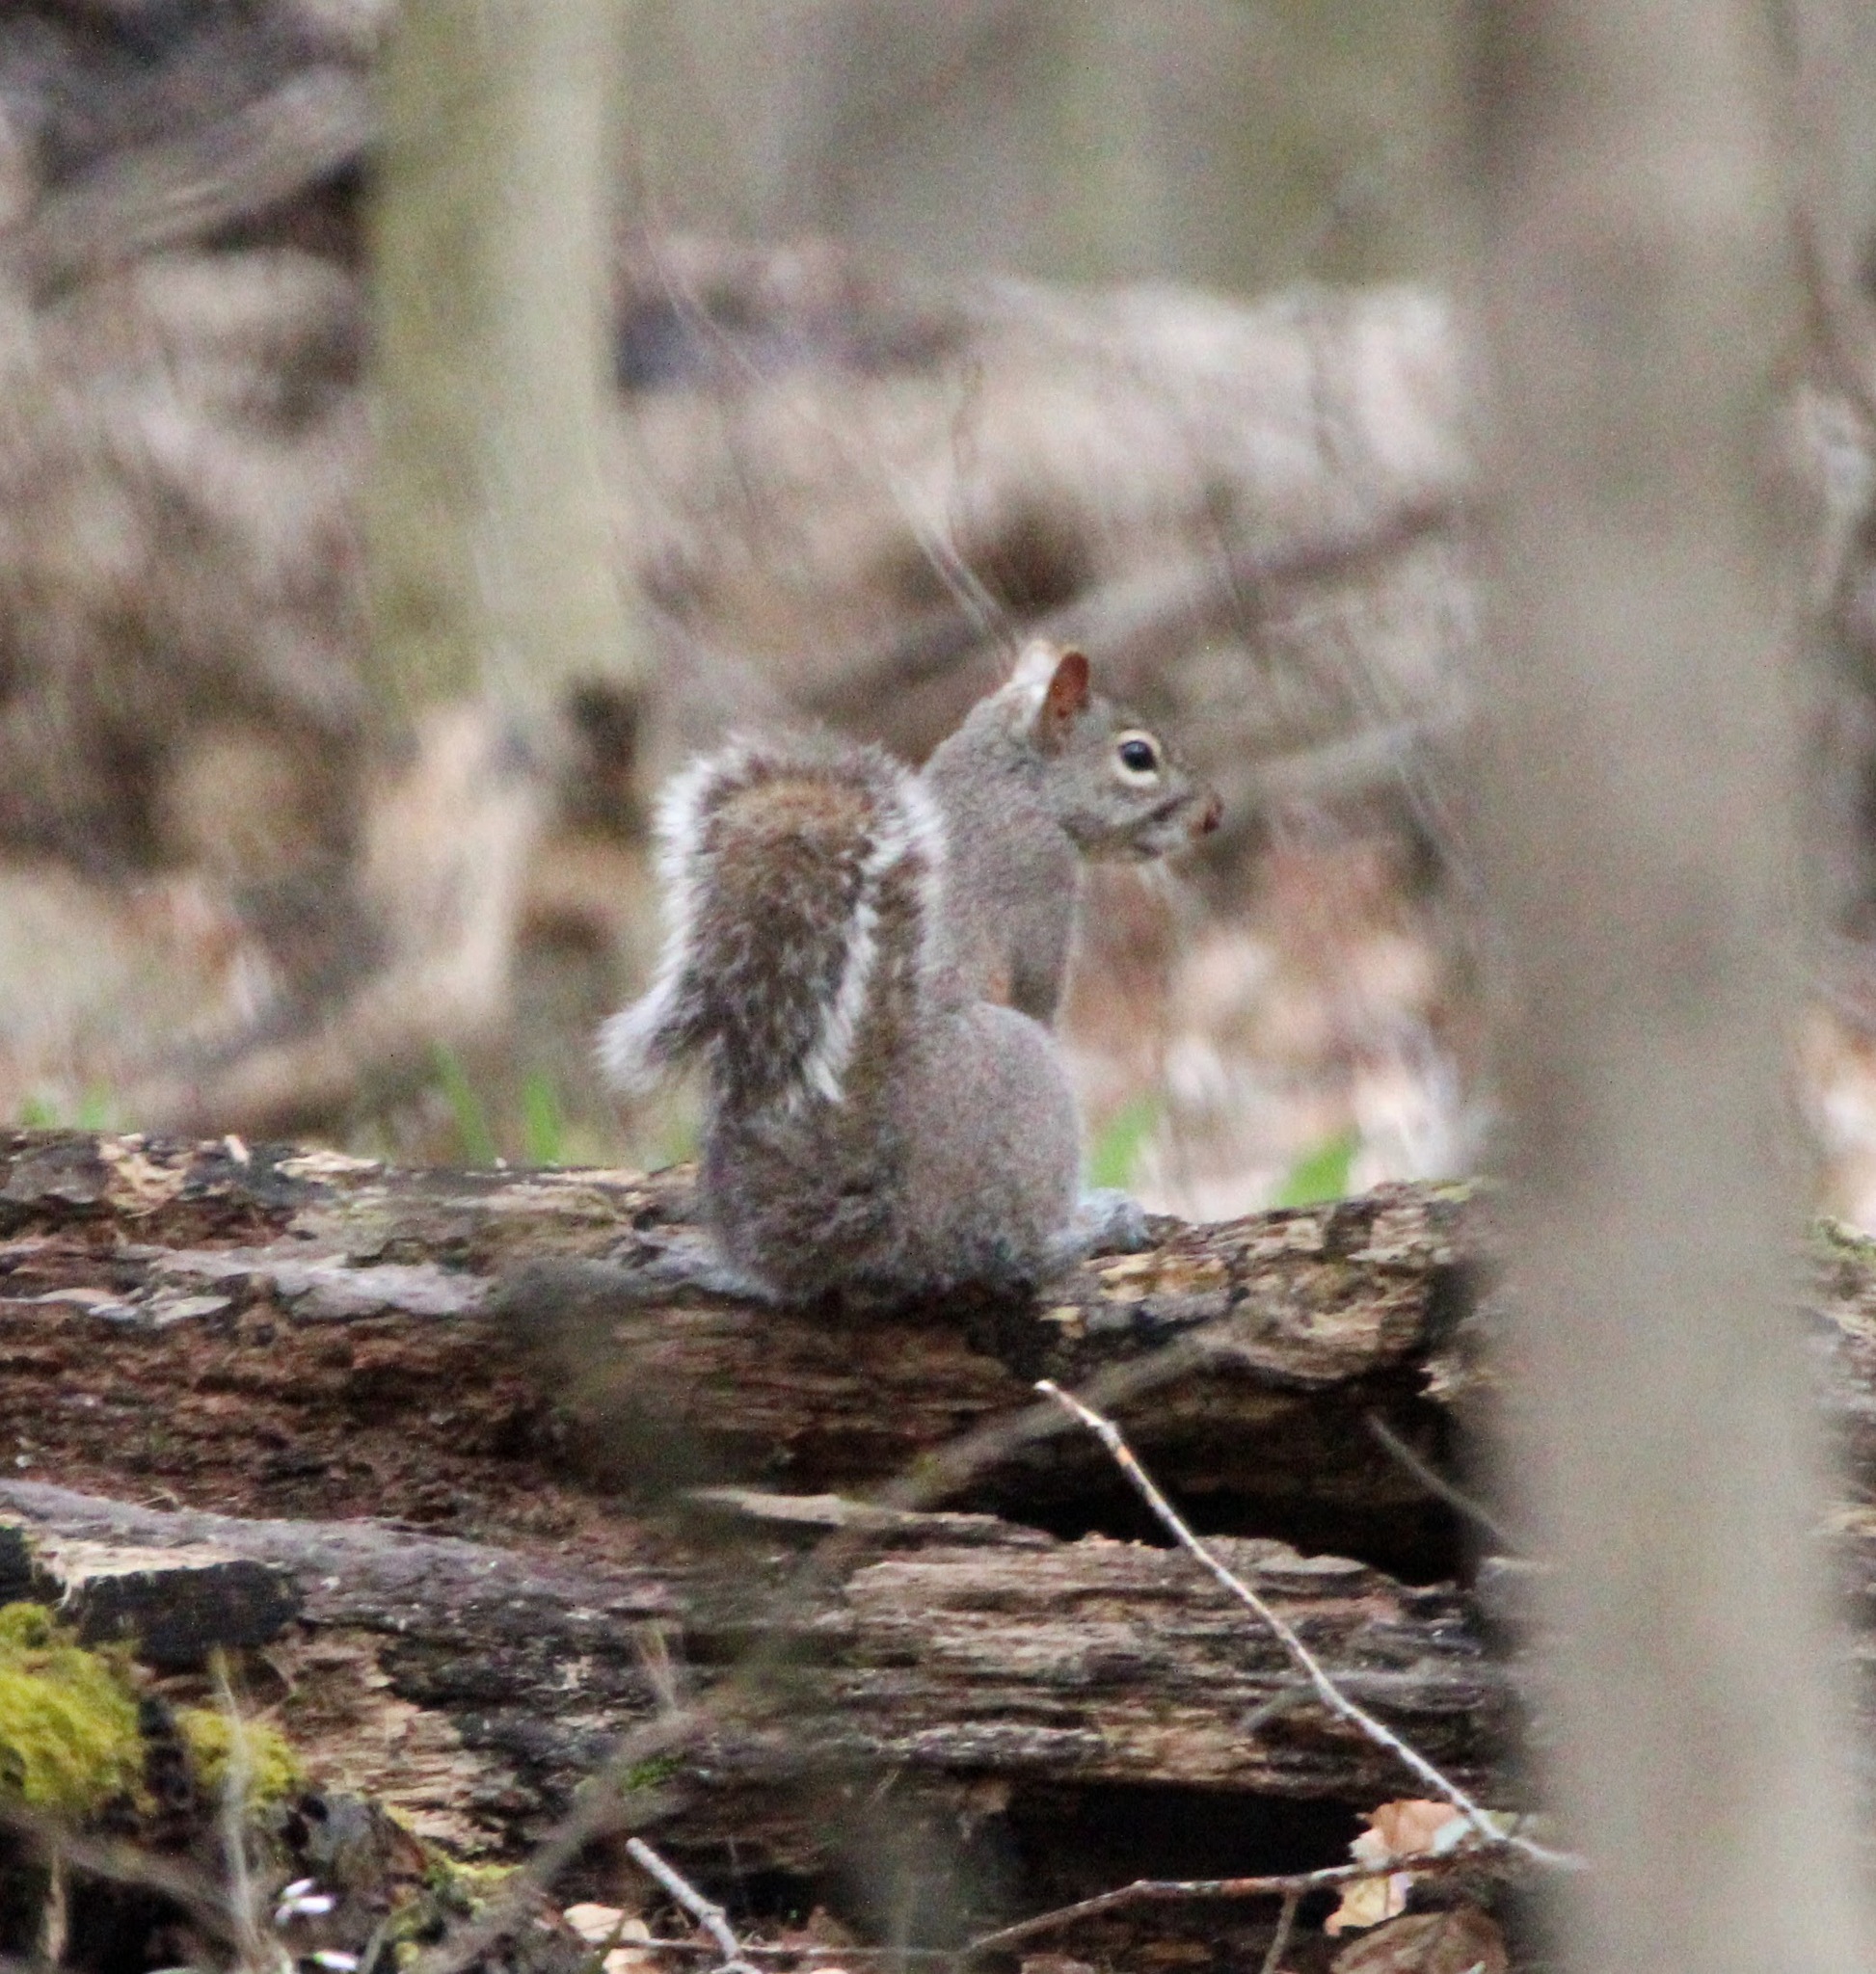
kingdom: Animalia
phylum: Chordata
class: Mammalia
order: Rodentia
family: Sciuridae
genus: Sciurus
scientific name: Sciurus carolinensis
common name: Eastern gray squirrel
